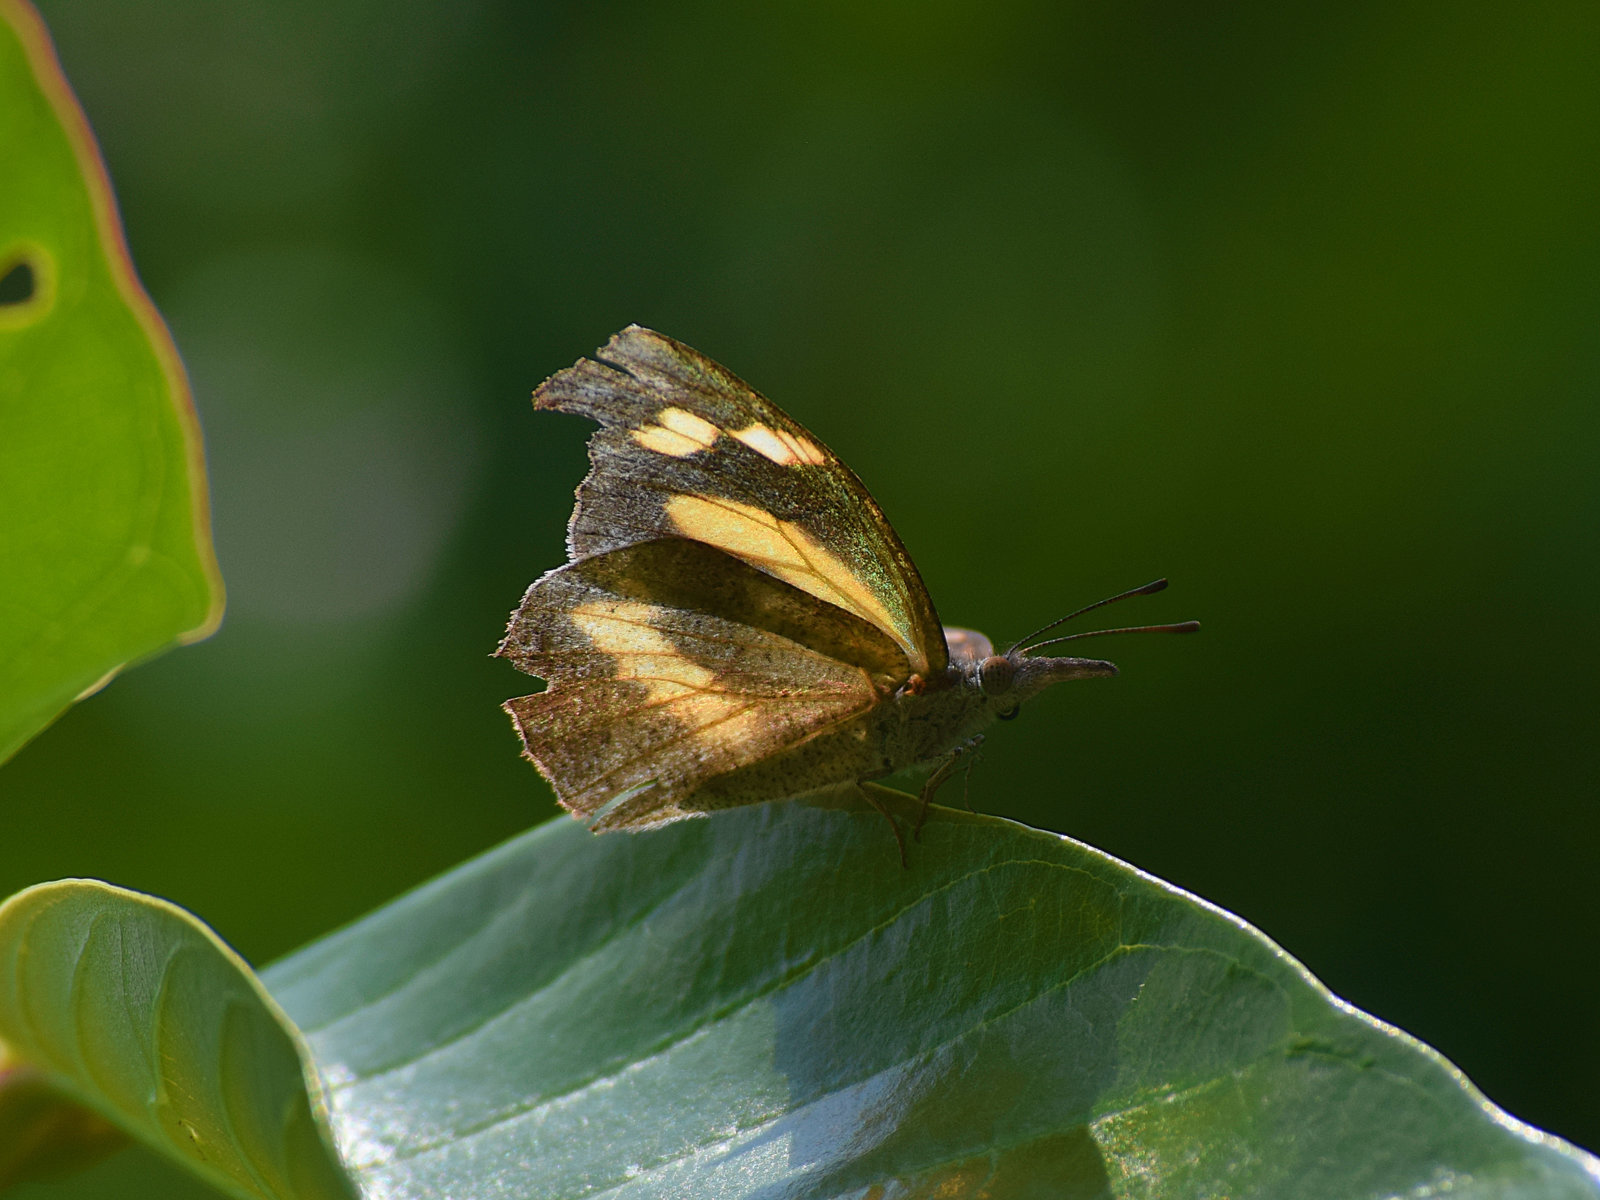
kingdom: Animalia
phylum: Arthropoda
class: Insecta
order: Lepidoptera
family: Nymphalidae
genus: Libythea
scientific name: Libythea myrrha
